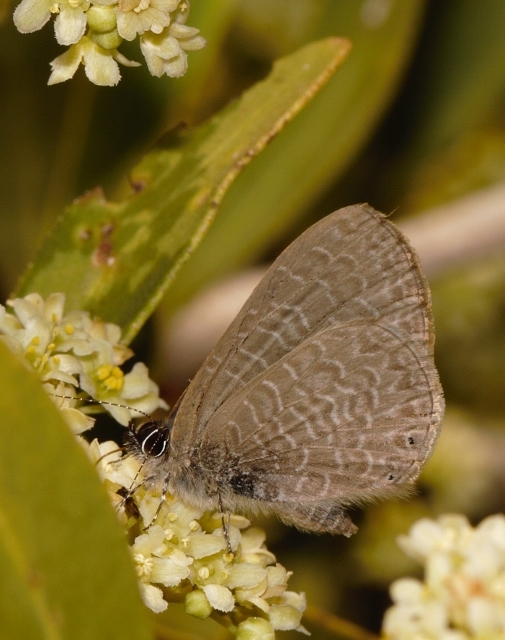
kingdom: Animalia
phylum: Arthropoda
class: Insecta
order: Lepidoptera
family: Lycaenidae
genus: Pseudonacaduba
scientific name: Pseudonacaduba sichela
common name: African line blue
